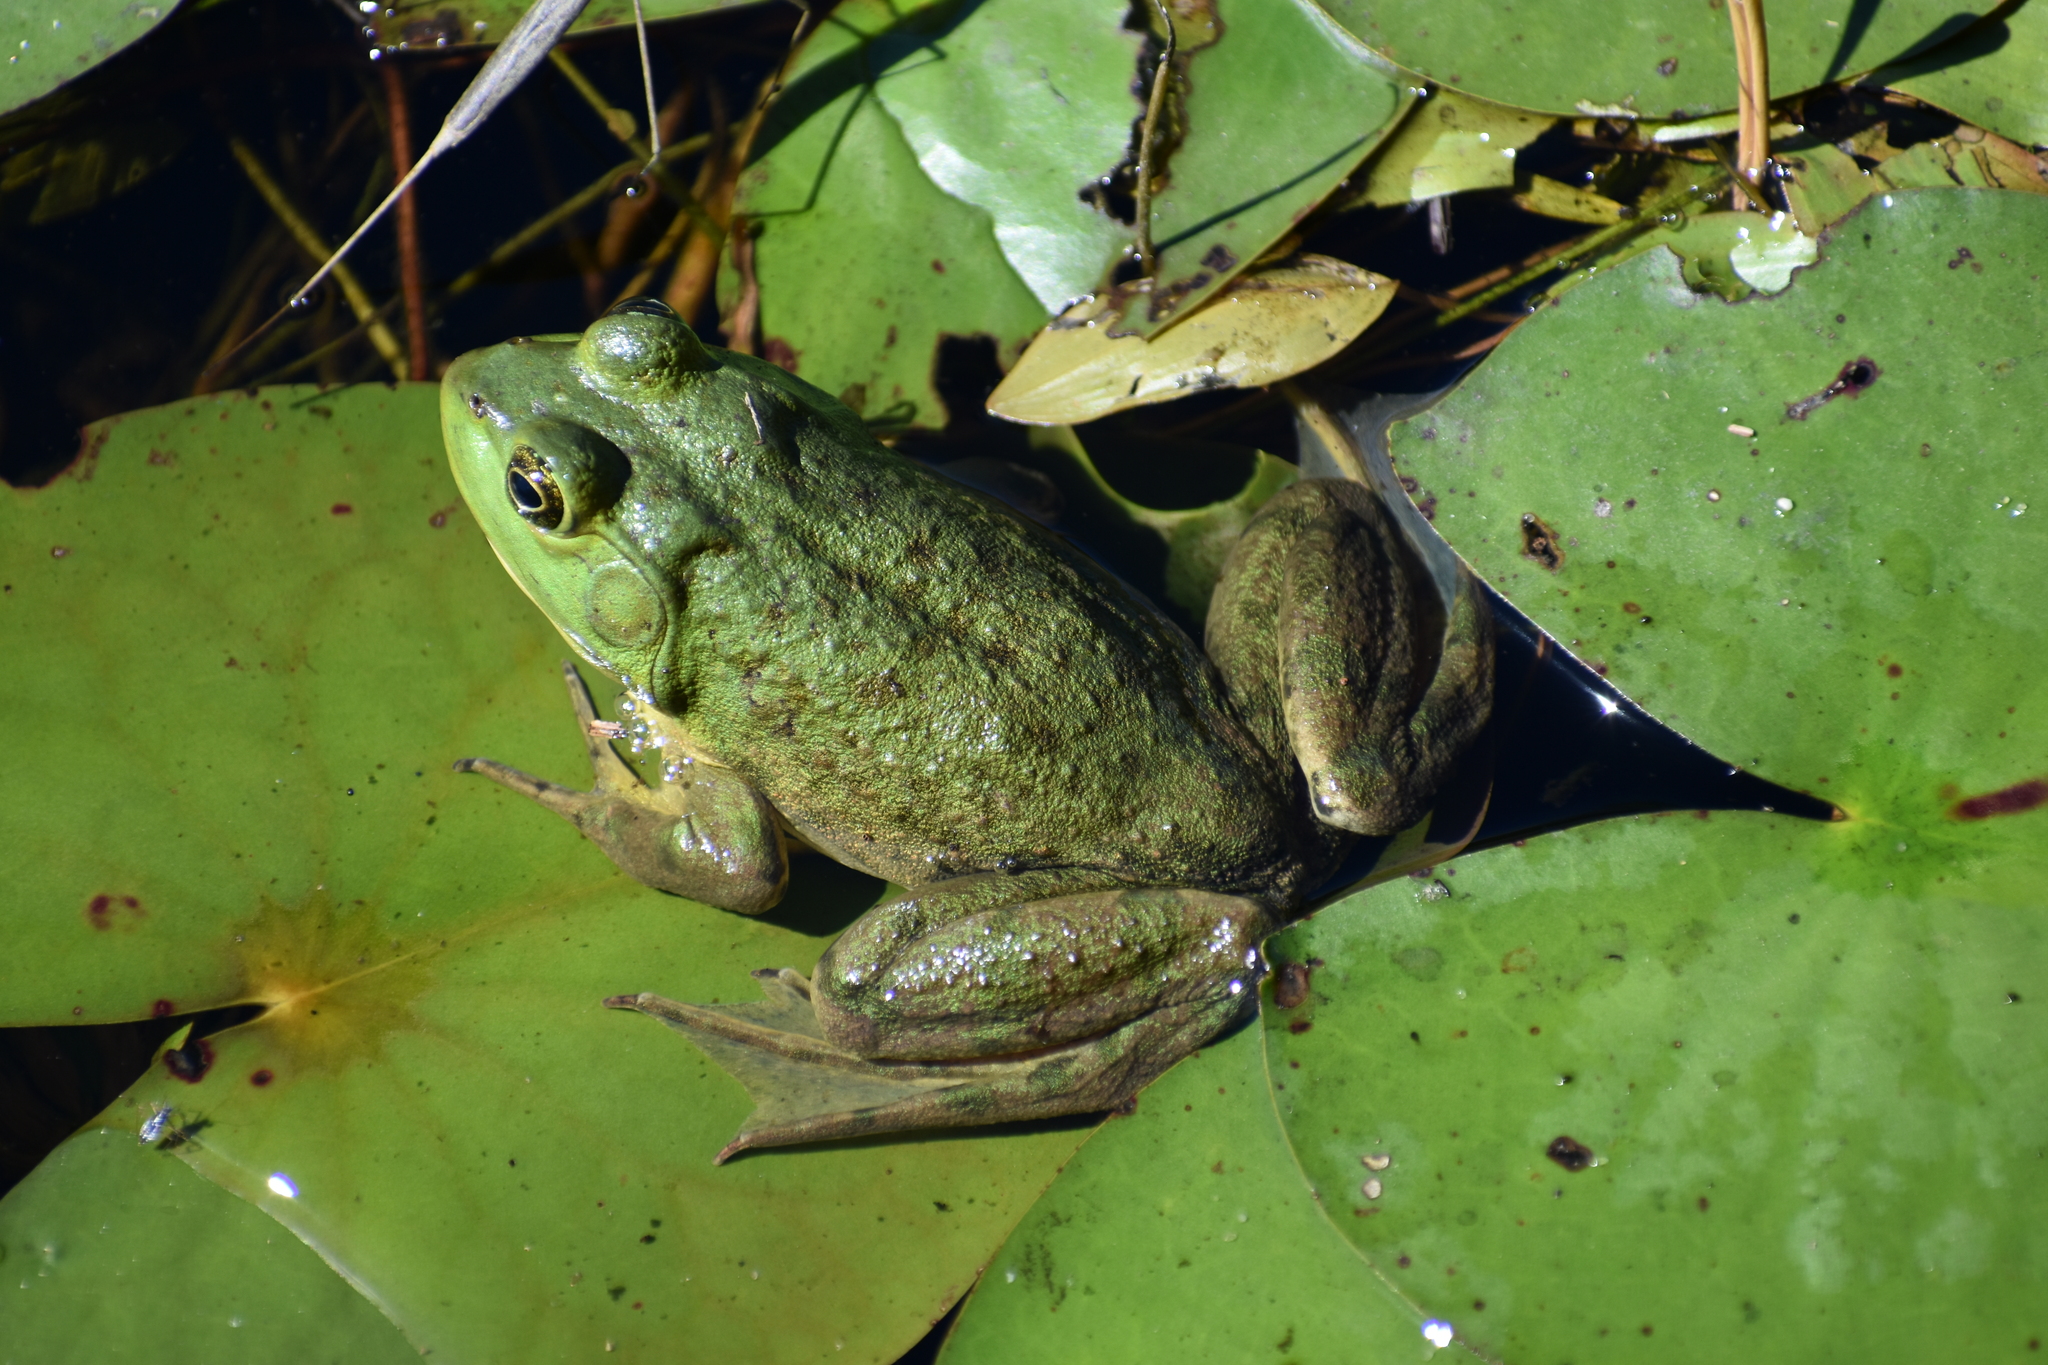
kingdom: Animalia
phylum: Chordata
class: Amphibia
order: Anura
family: Ranidae
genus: Lithobates
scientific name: Lithobates catesbeianus
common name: American bullfrog
